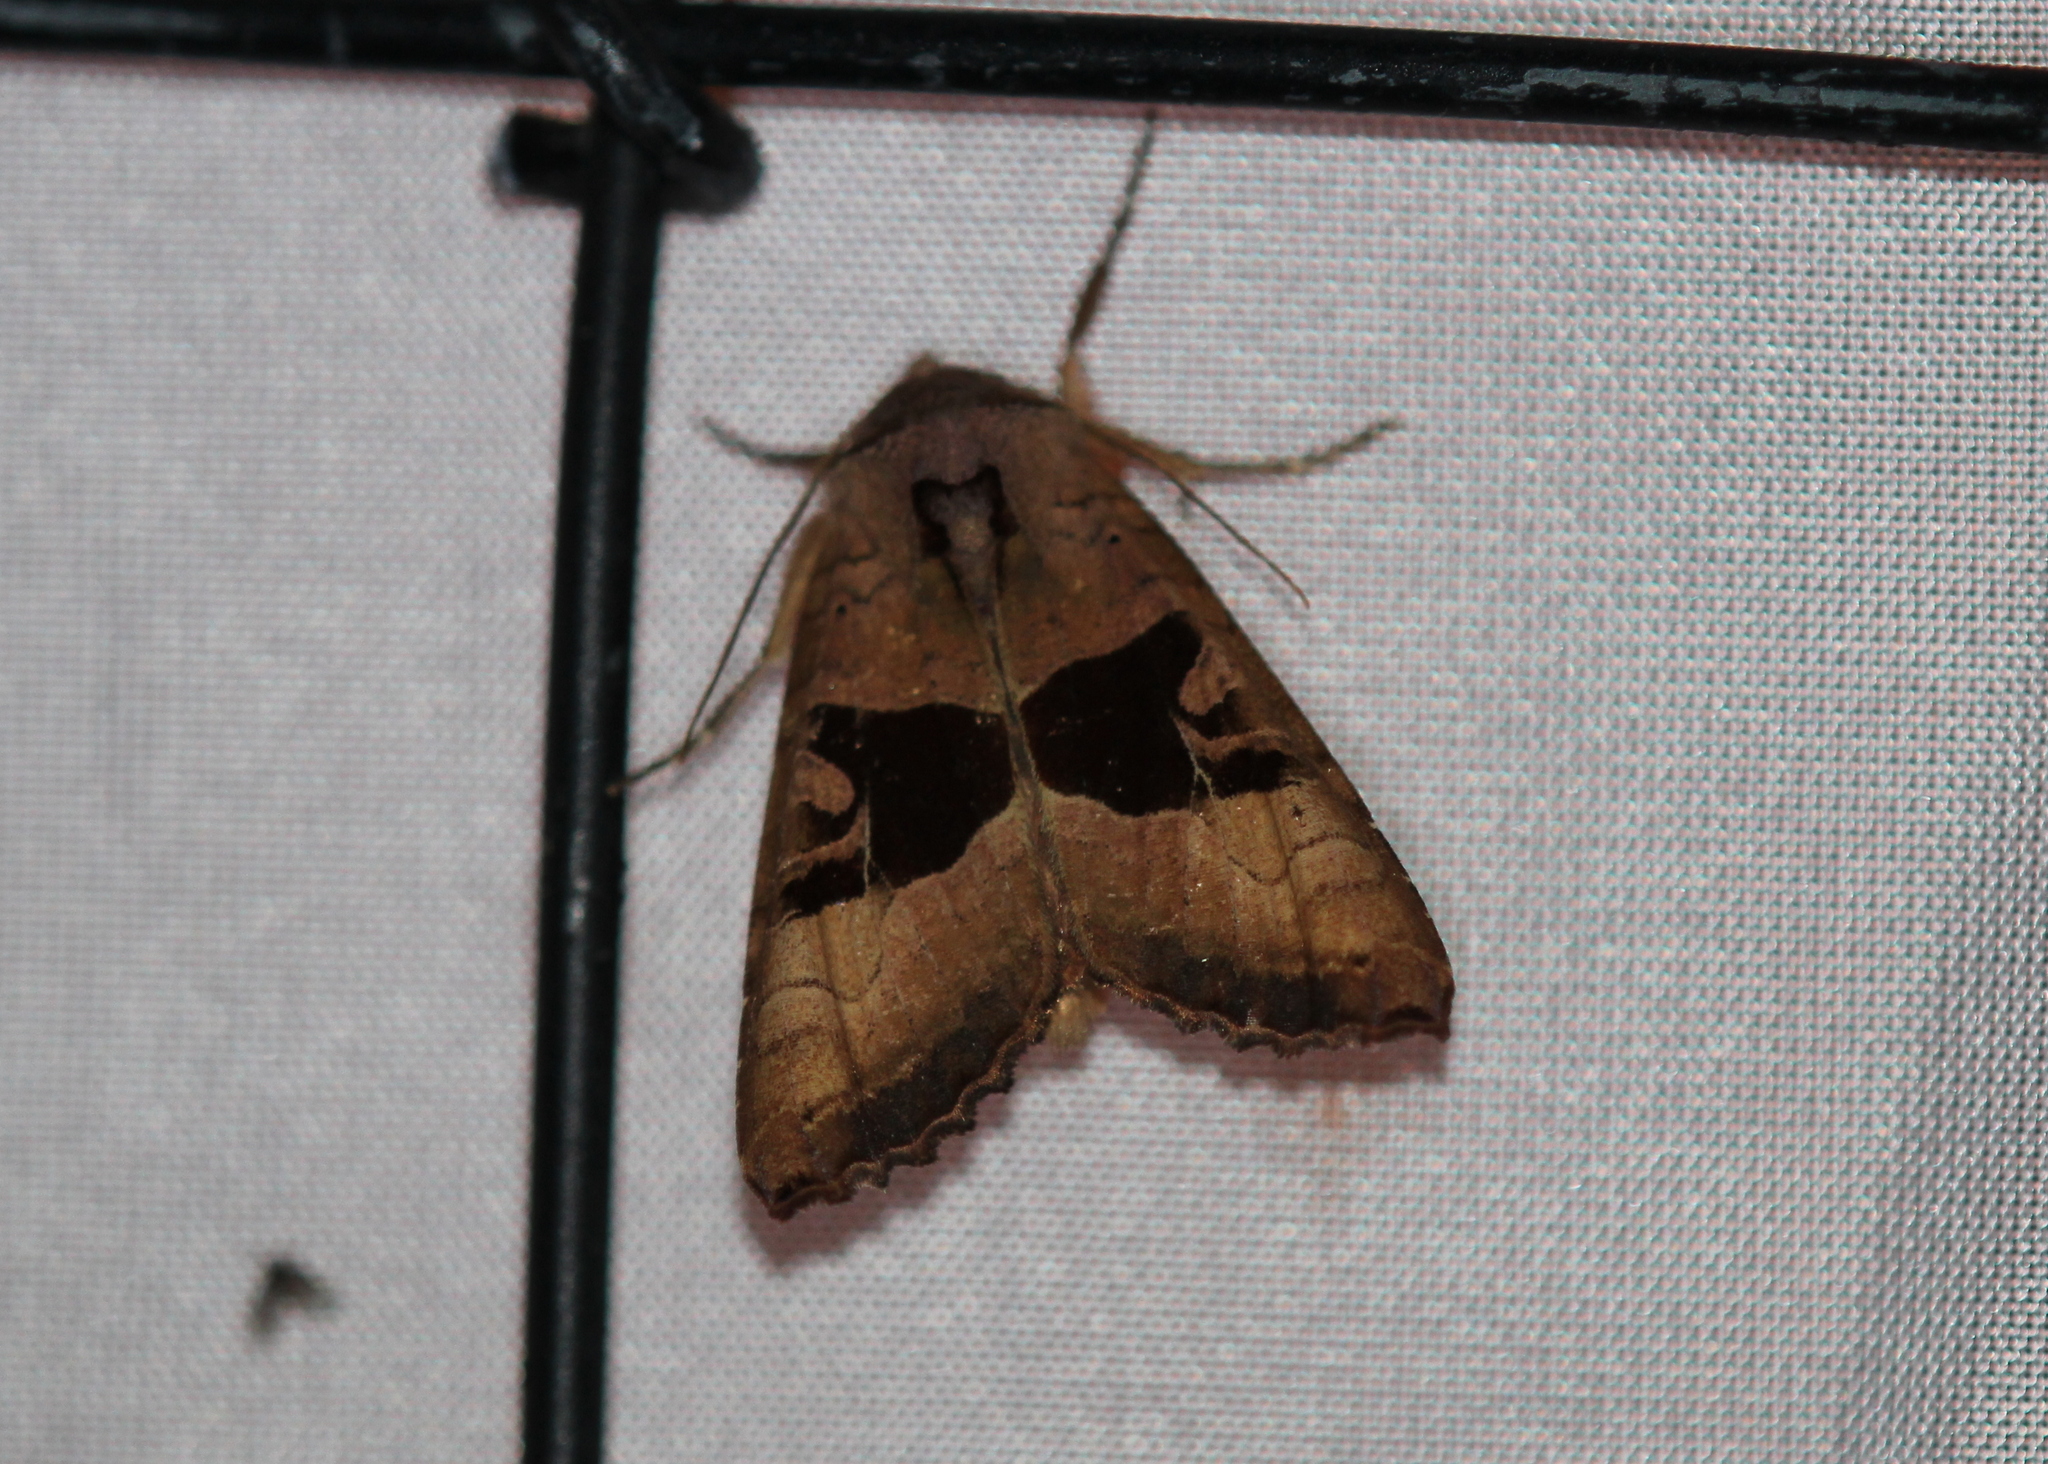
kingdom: Animalia
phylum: Arthropoda
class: Insecta
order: Lepidoptera
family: Noctuidae
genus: Phlogophora
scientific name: Phlogophora periculosa
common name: Brown angle shades
